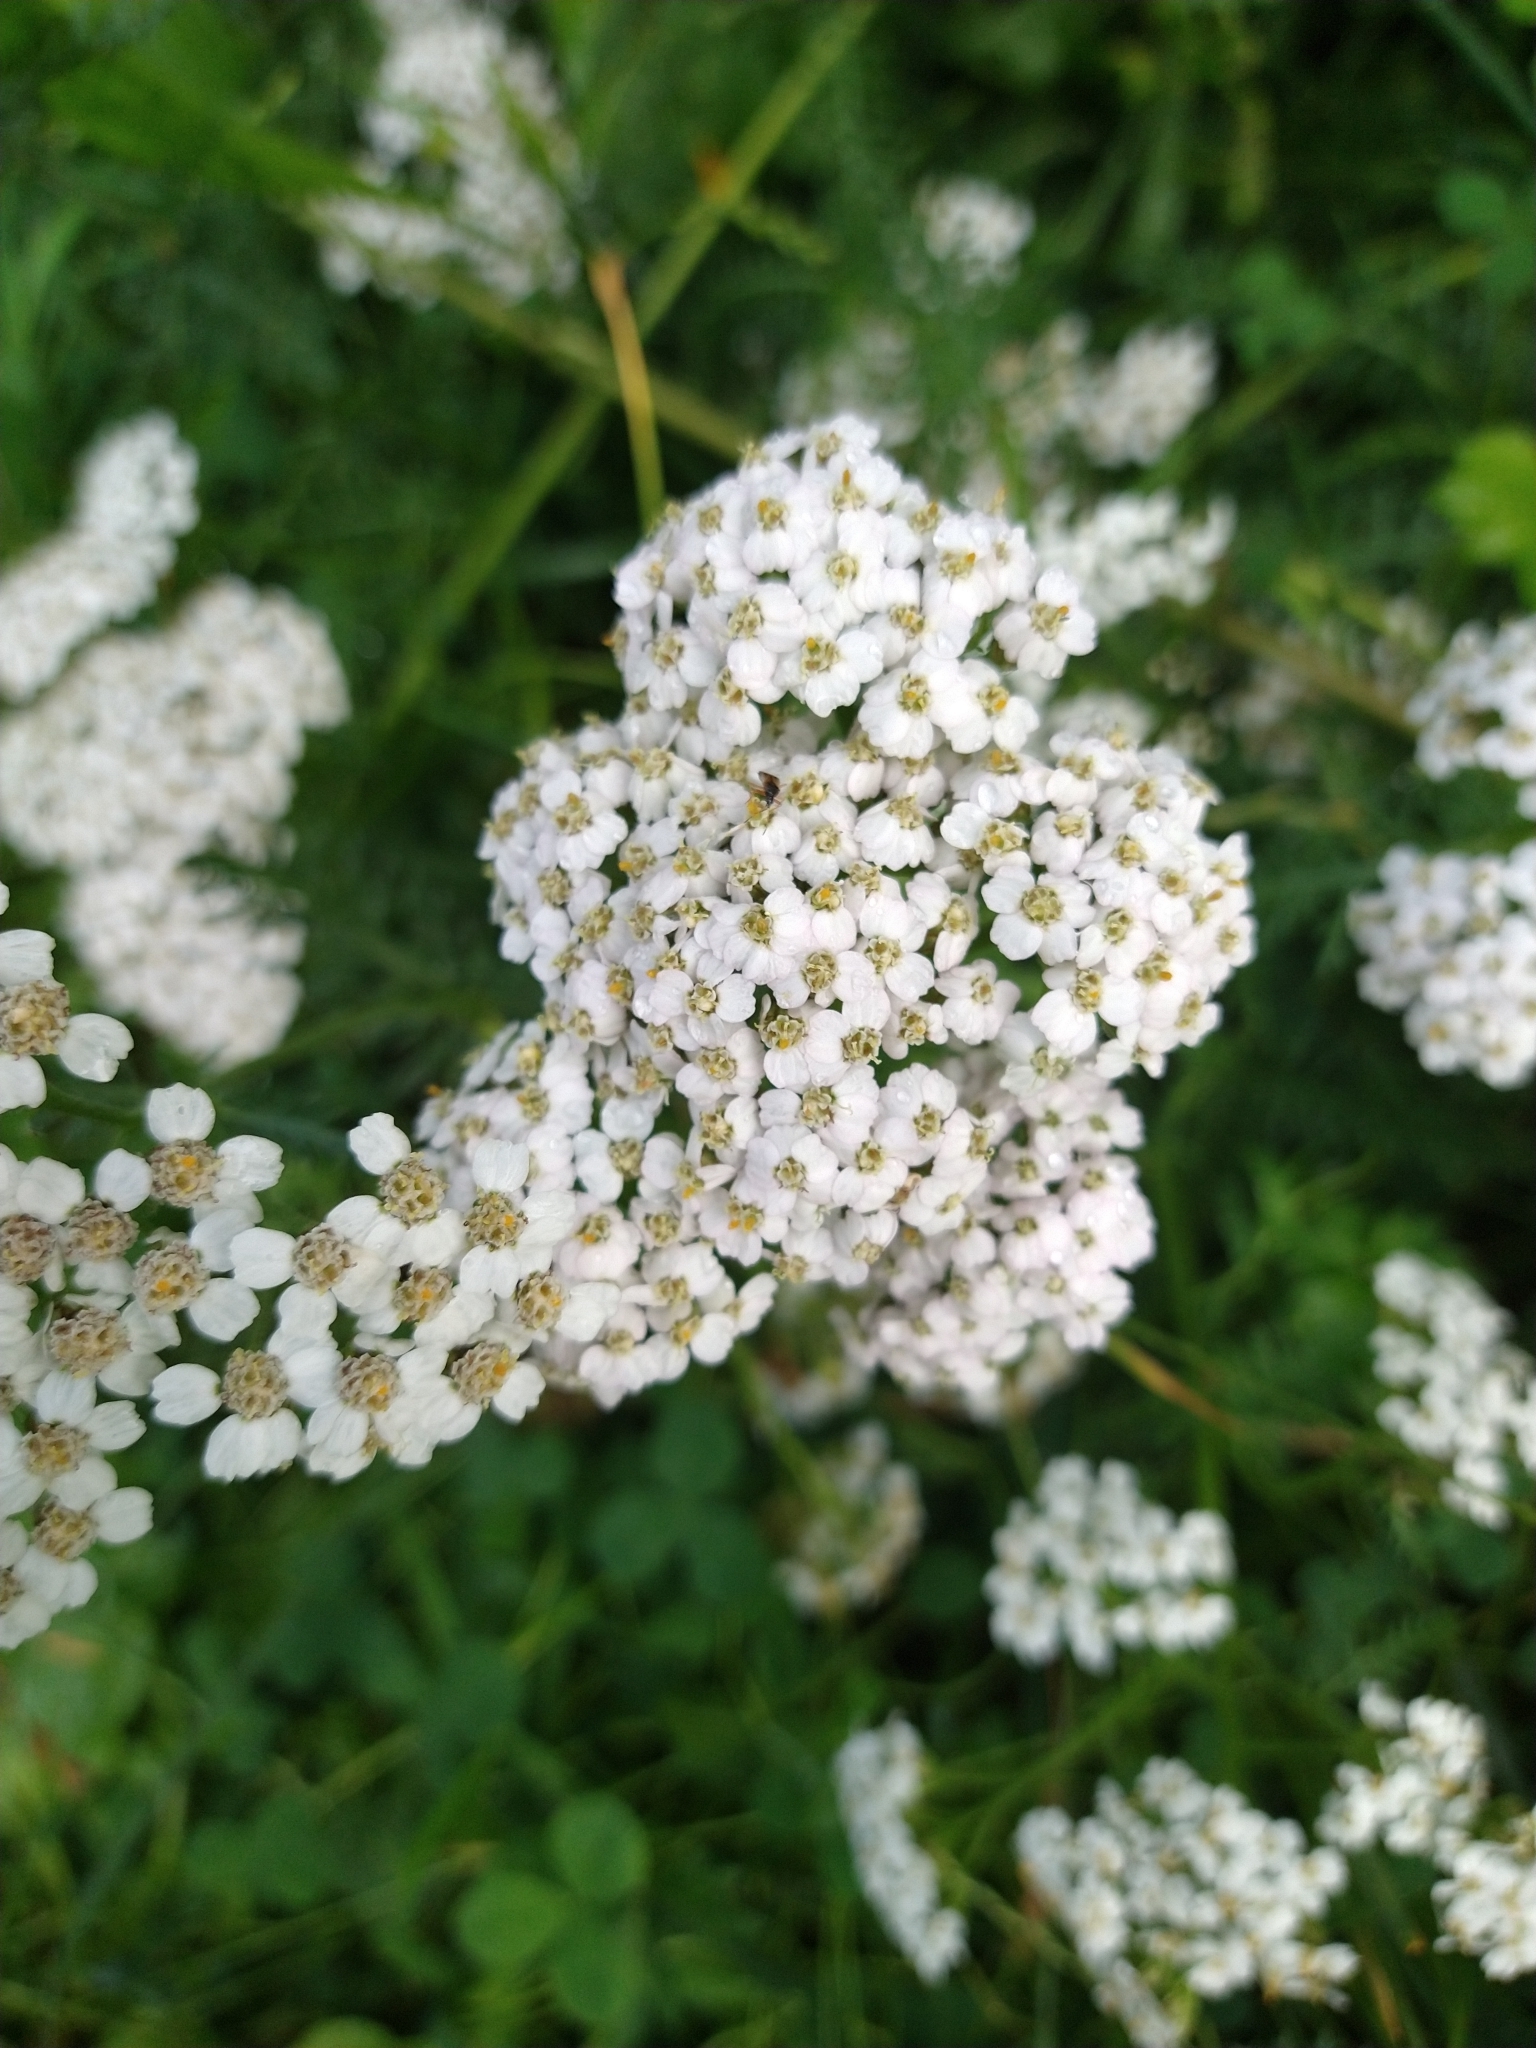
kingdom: Plantae
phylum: Tracheophyta
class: Magnoliopsida
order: Asterales
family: Asteraceae
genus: Achillea
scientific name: Achillea millefolium
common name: Yarrow
